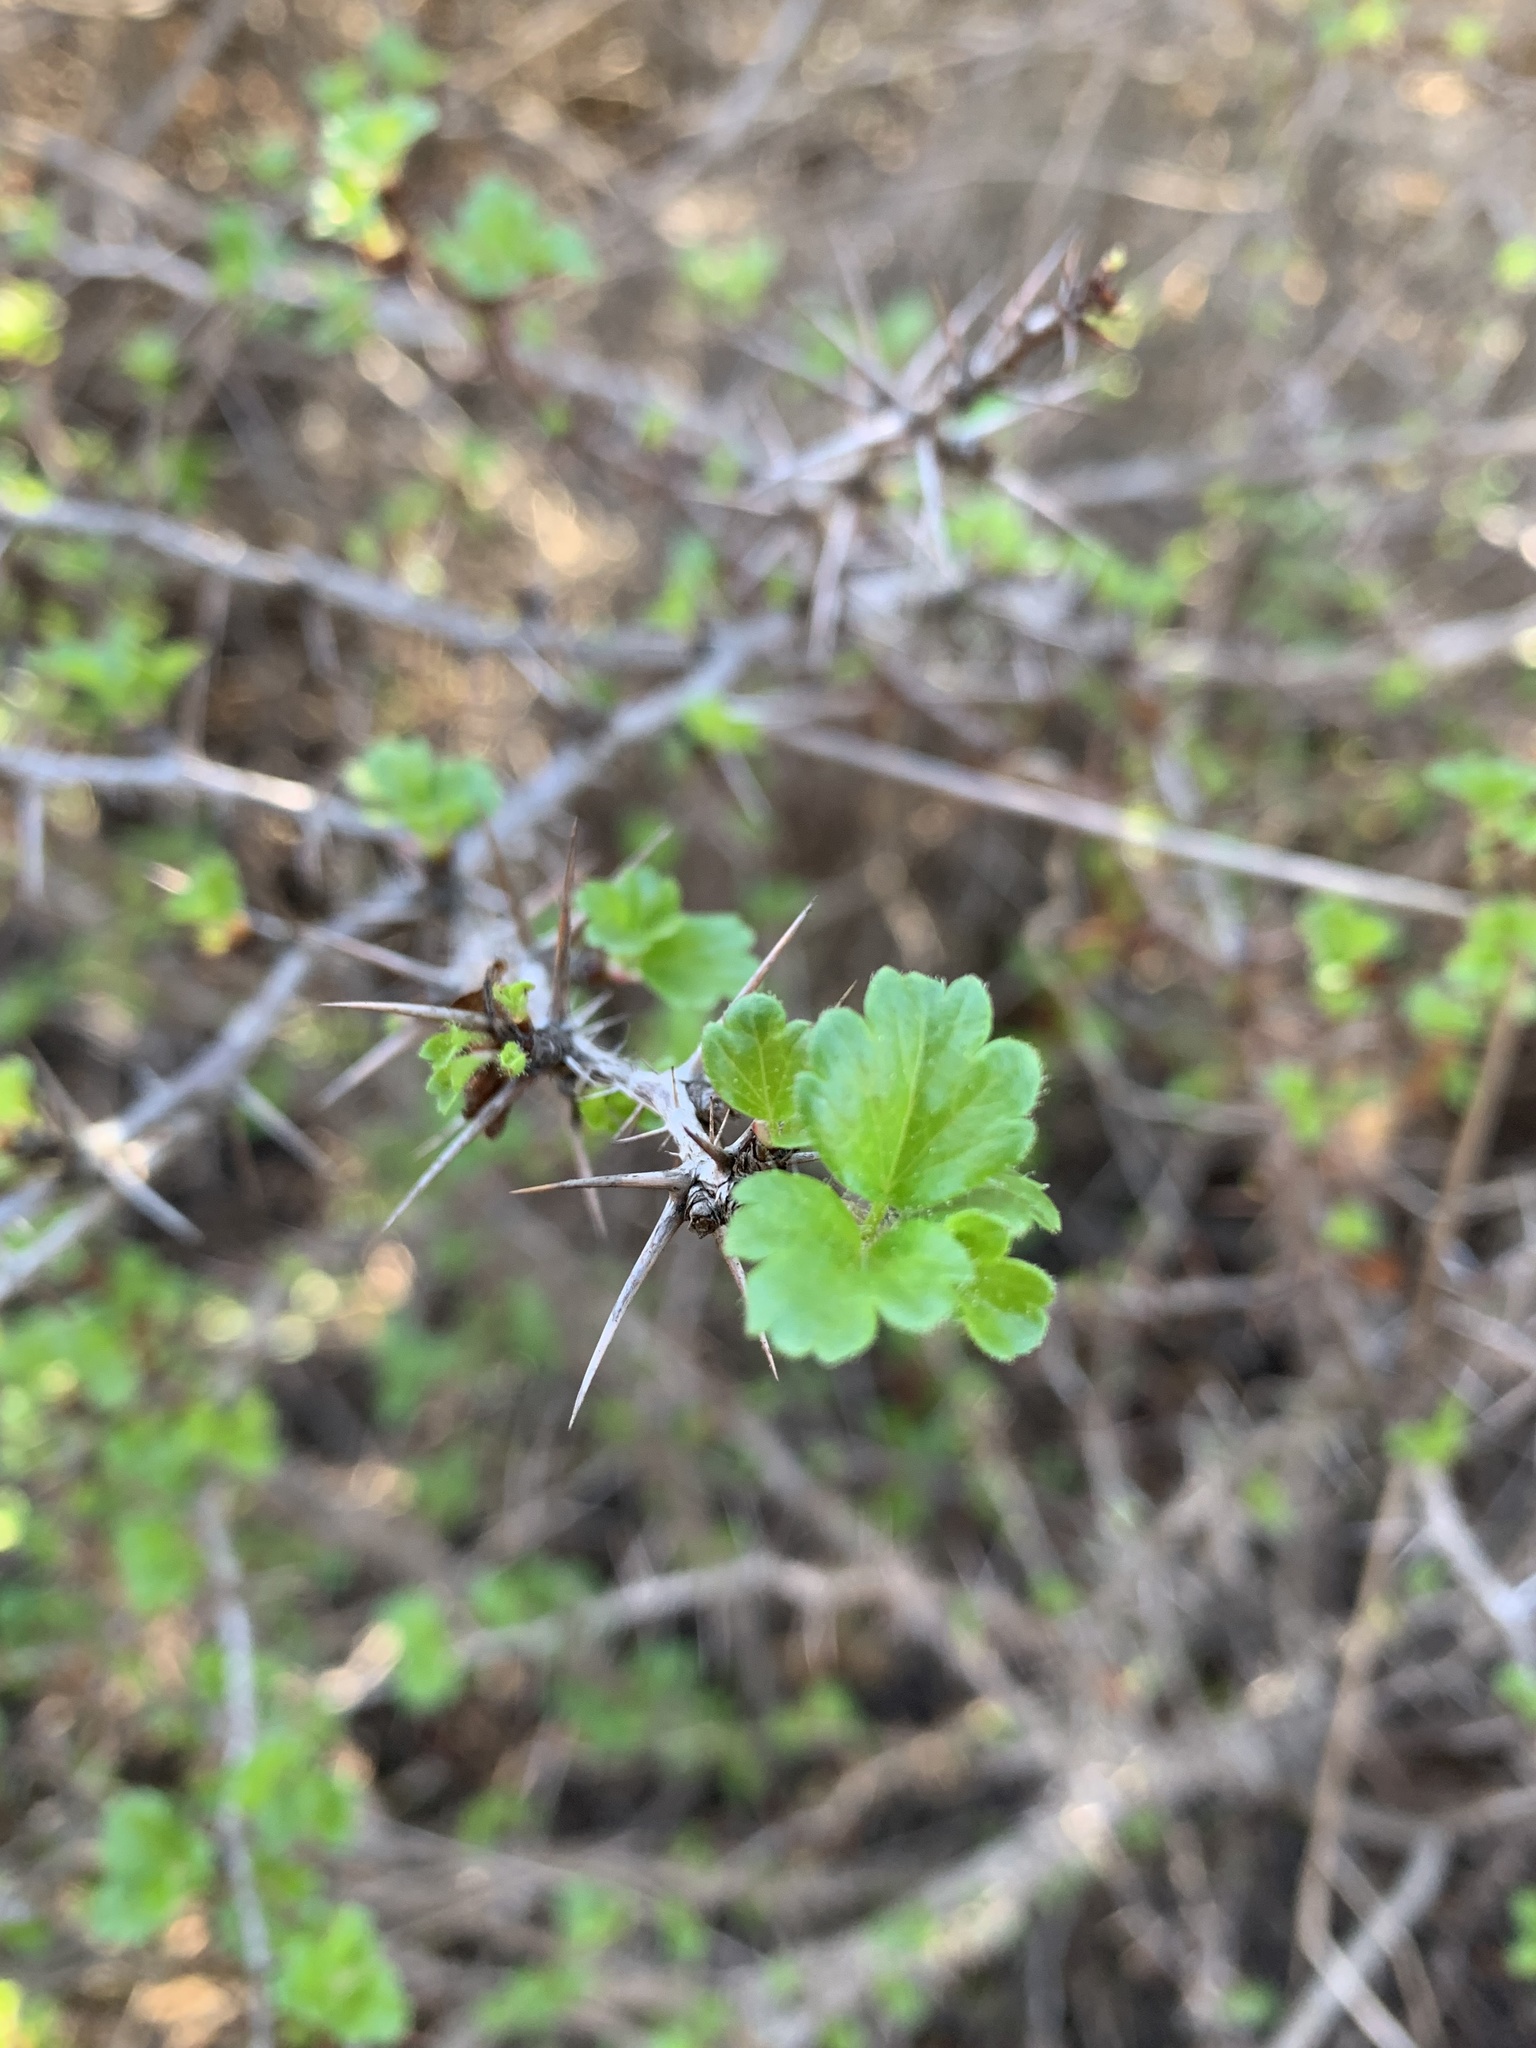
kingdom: Plantae
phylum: Tracheophyta
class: Magnoliopsida
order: Saxifragales
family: Grossulariaceae
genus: Ribes
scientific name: Ribes speciosum
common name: Fuchsia-flower gooseberry
